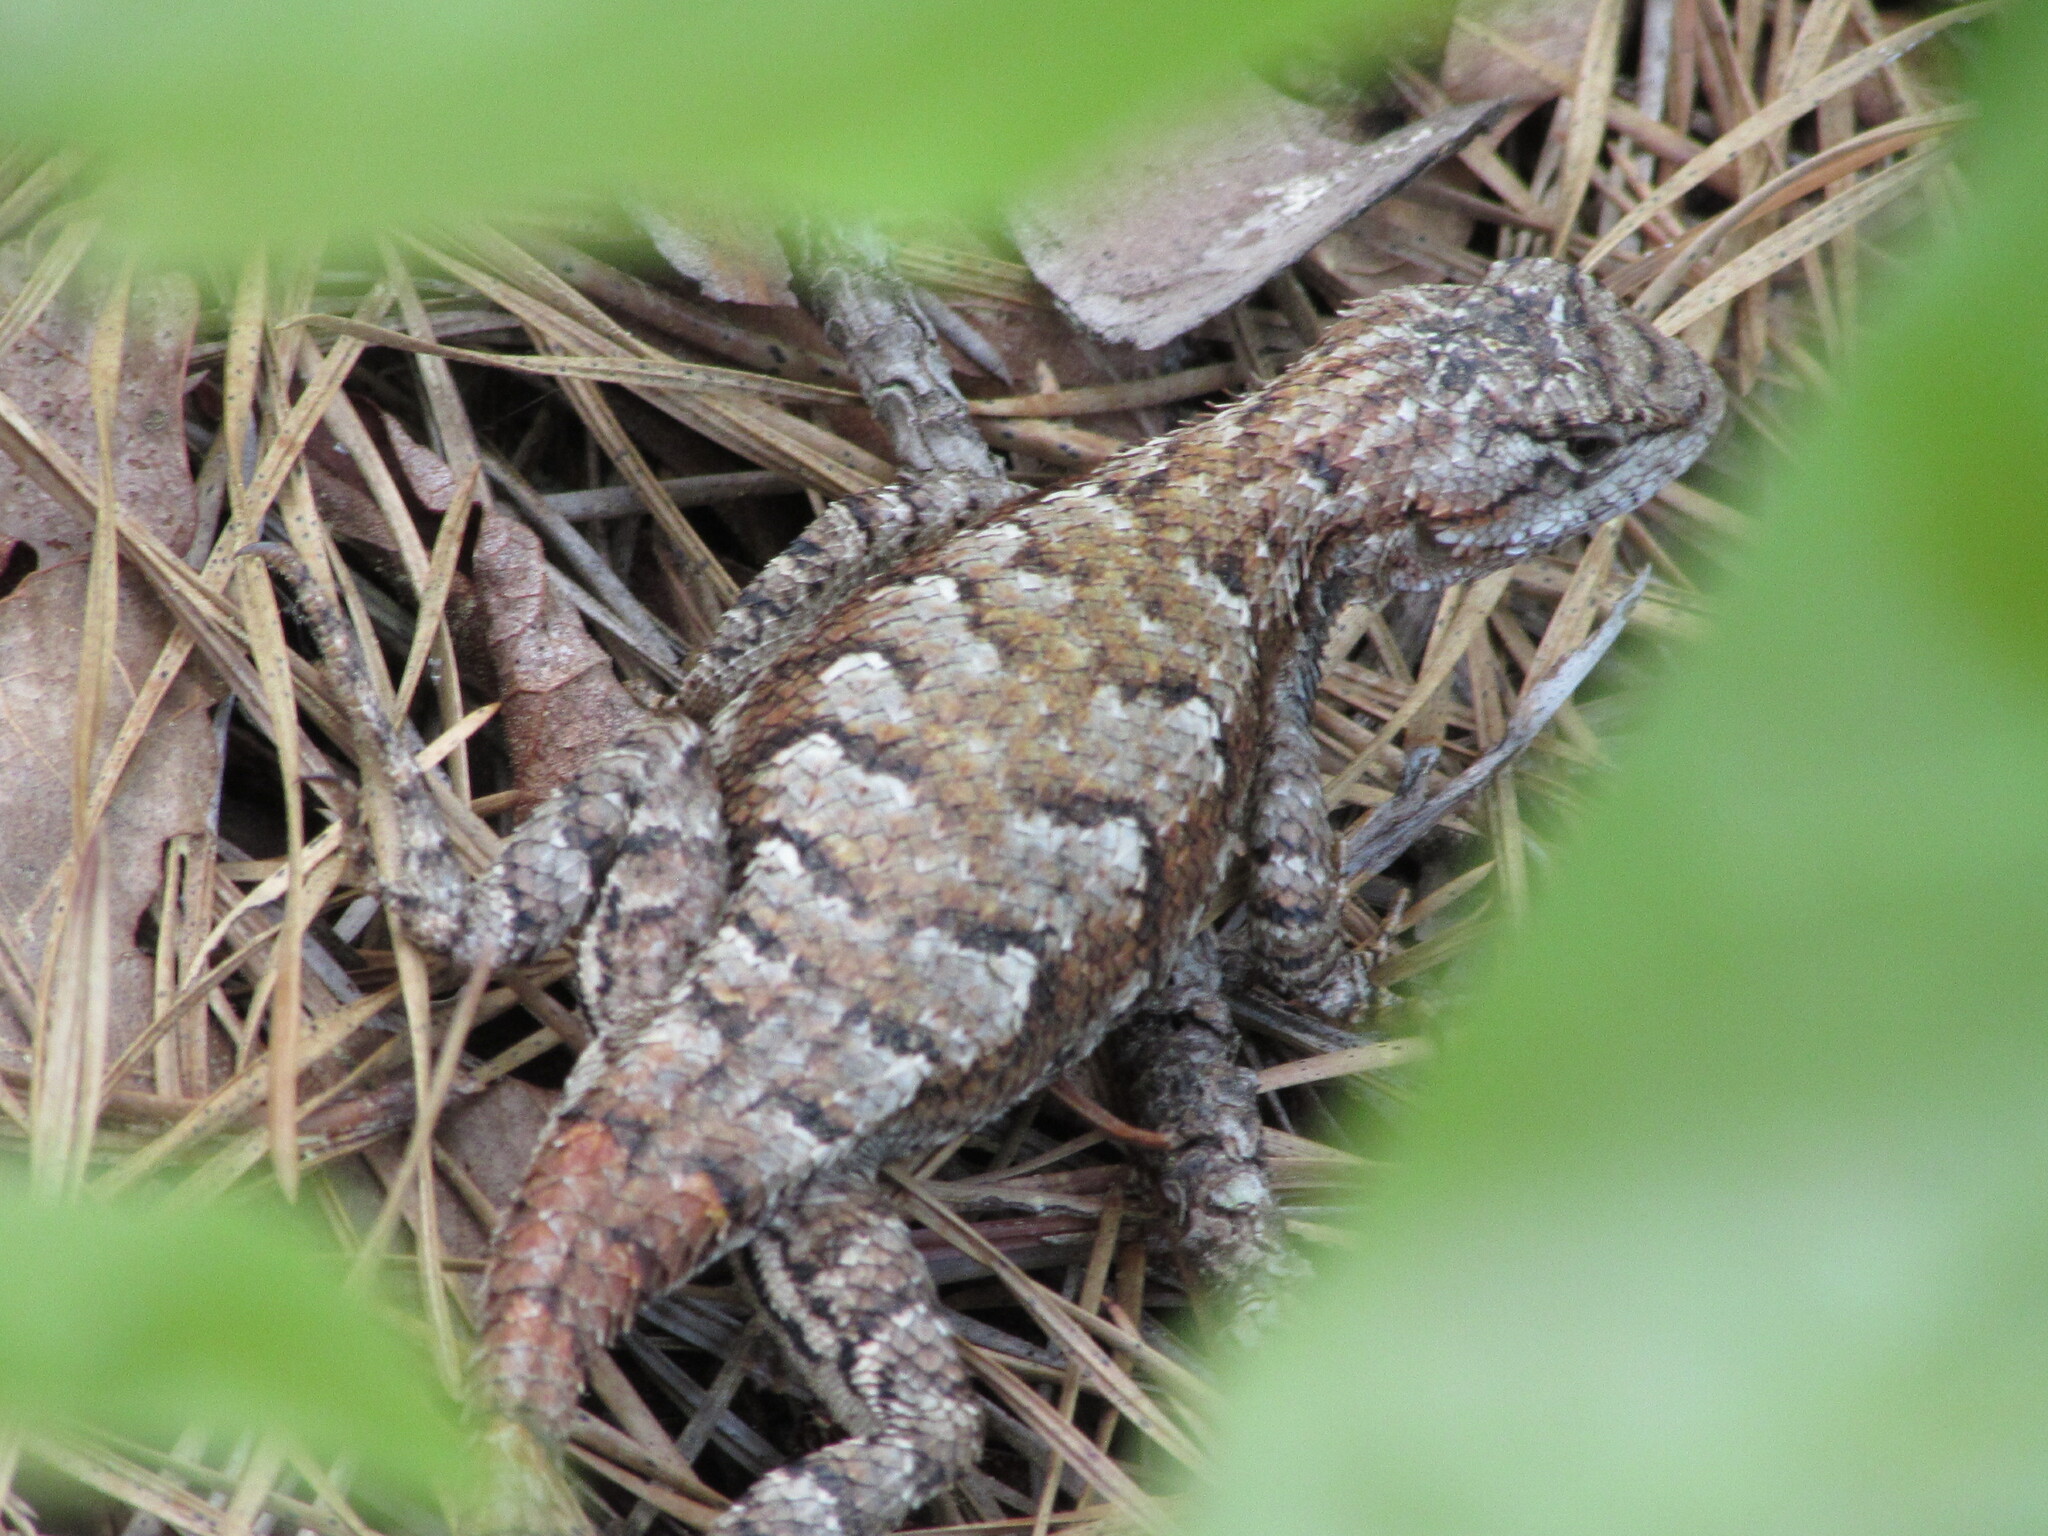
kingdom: Animalia
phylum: Chordata
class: Squamata
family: Phrynosomatidae
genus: Sceloporus
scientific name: Sceloporus undulatus
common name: Eastern fence lizard
